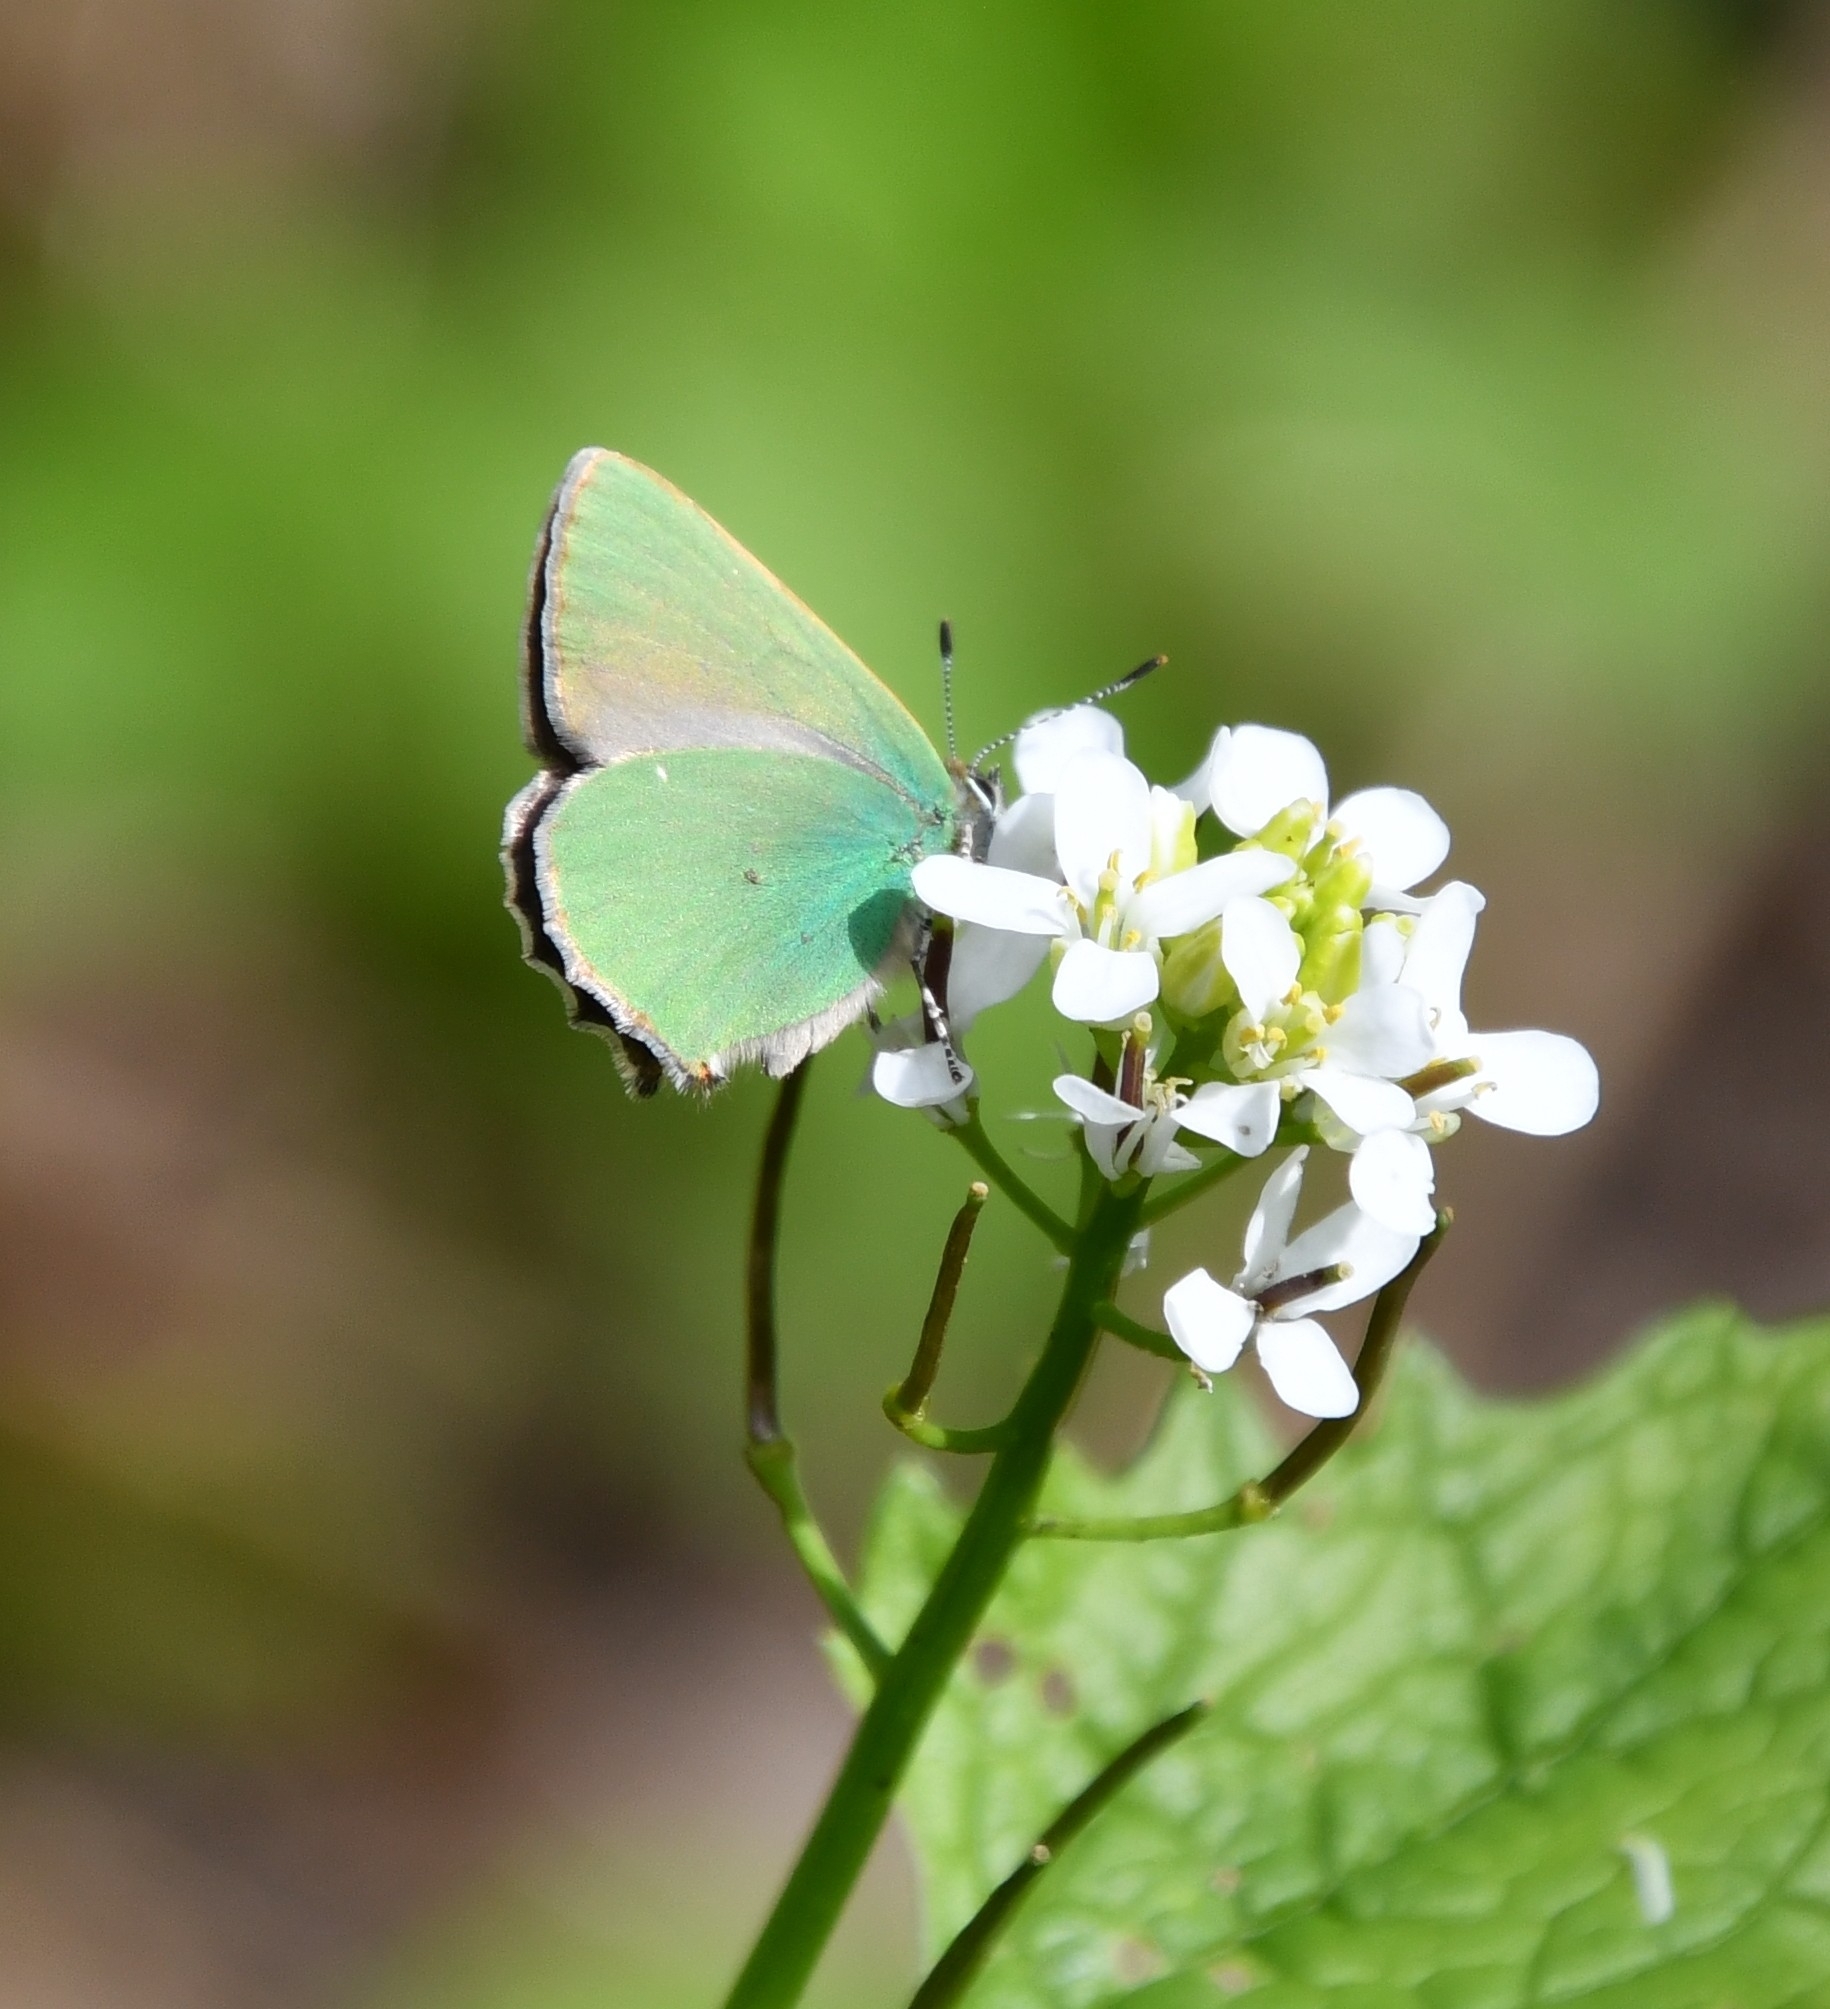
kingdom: Animalia
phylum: Arthropoda
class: Insecta
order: Lepidoptera
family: Lycaenidae
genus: Callophrys
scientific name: Callophrys rubi
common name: Green hairstreak
